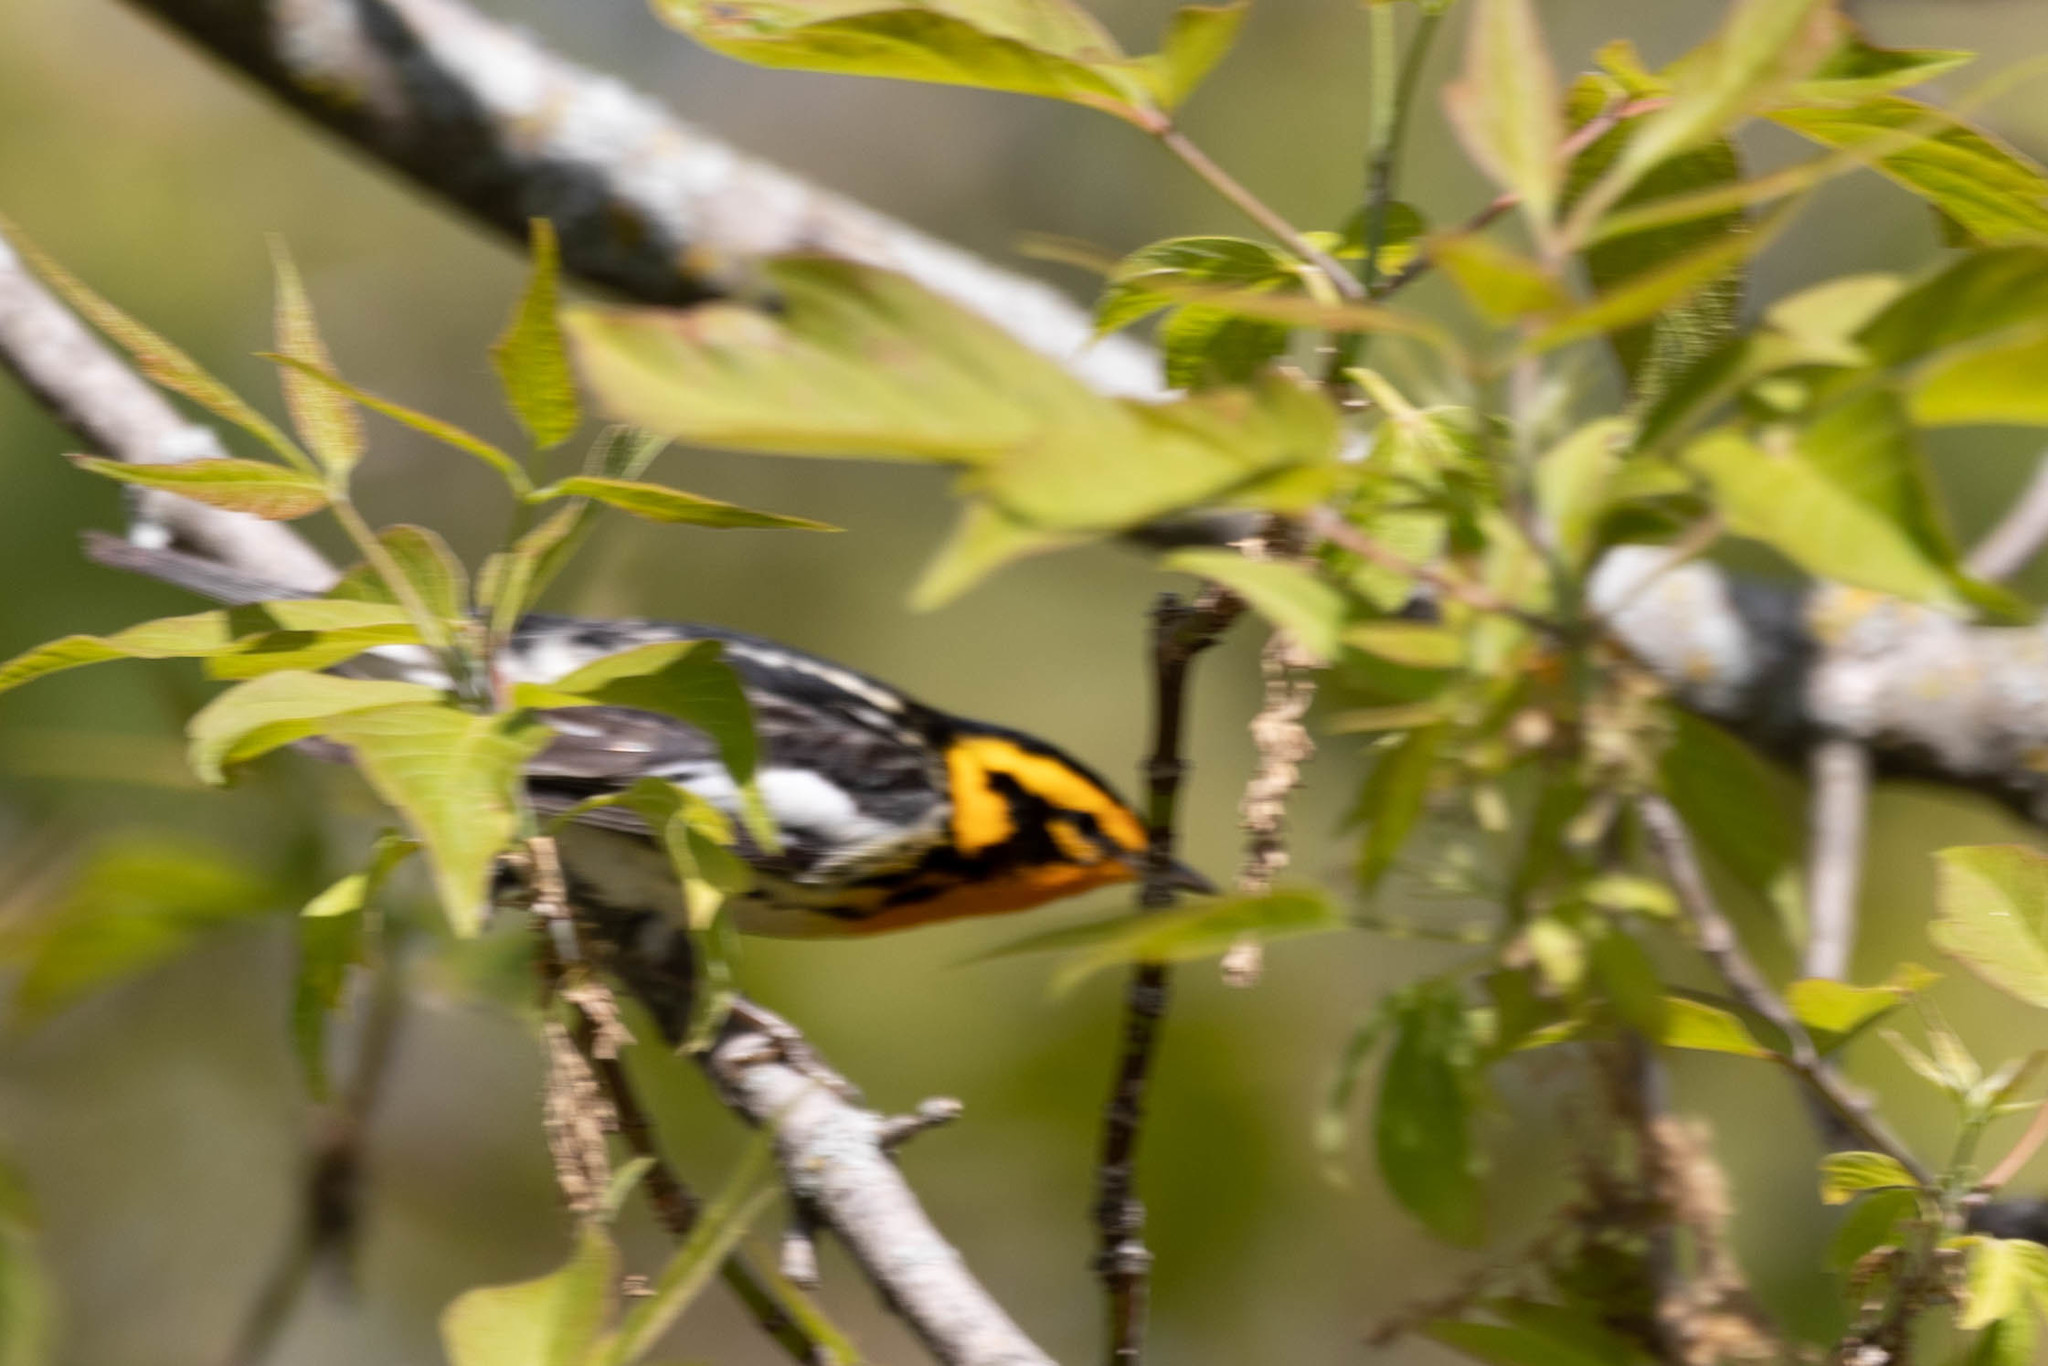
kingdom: Animalia
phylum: Chordata
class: Aves
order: Passeriformes
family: Parulidae
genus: Setophaga
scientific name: Setophaga fusca
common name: Blackburnian warbler
